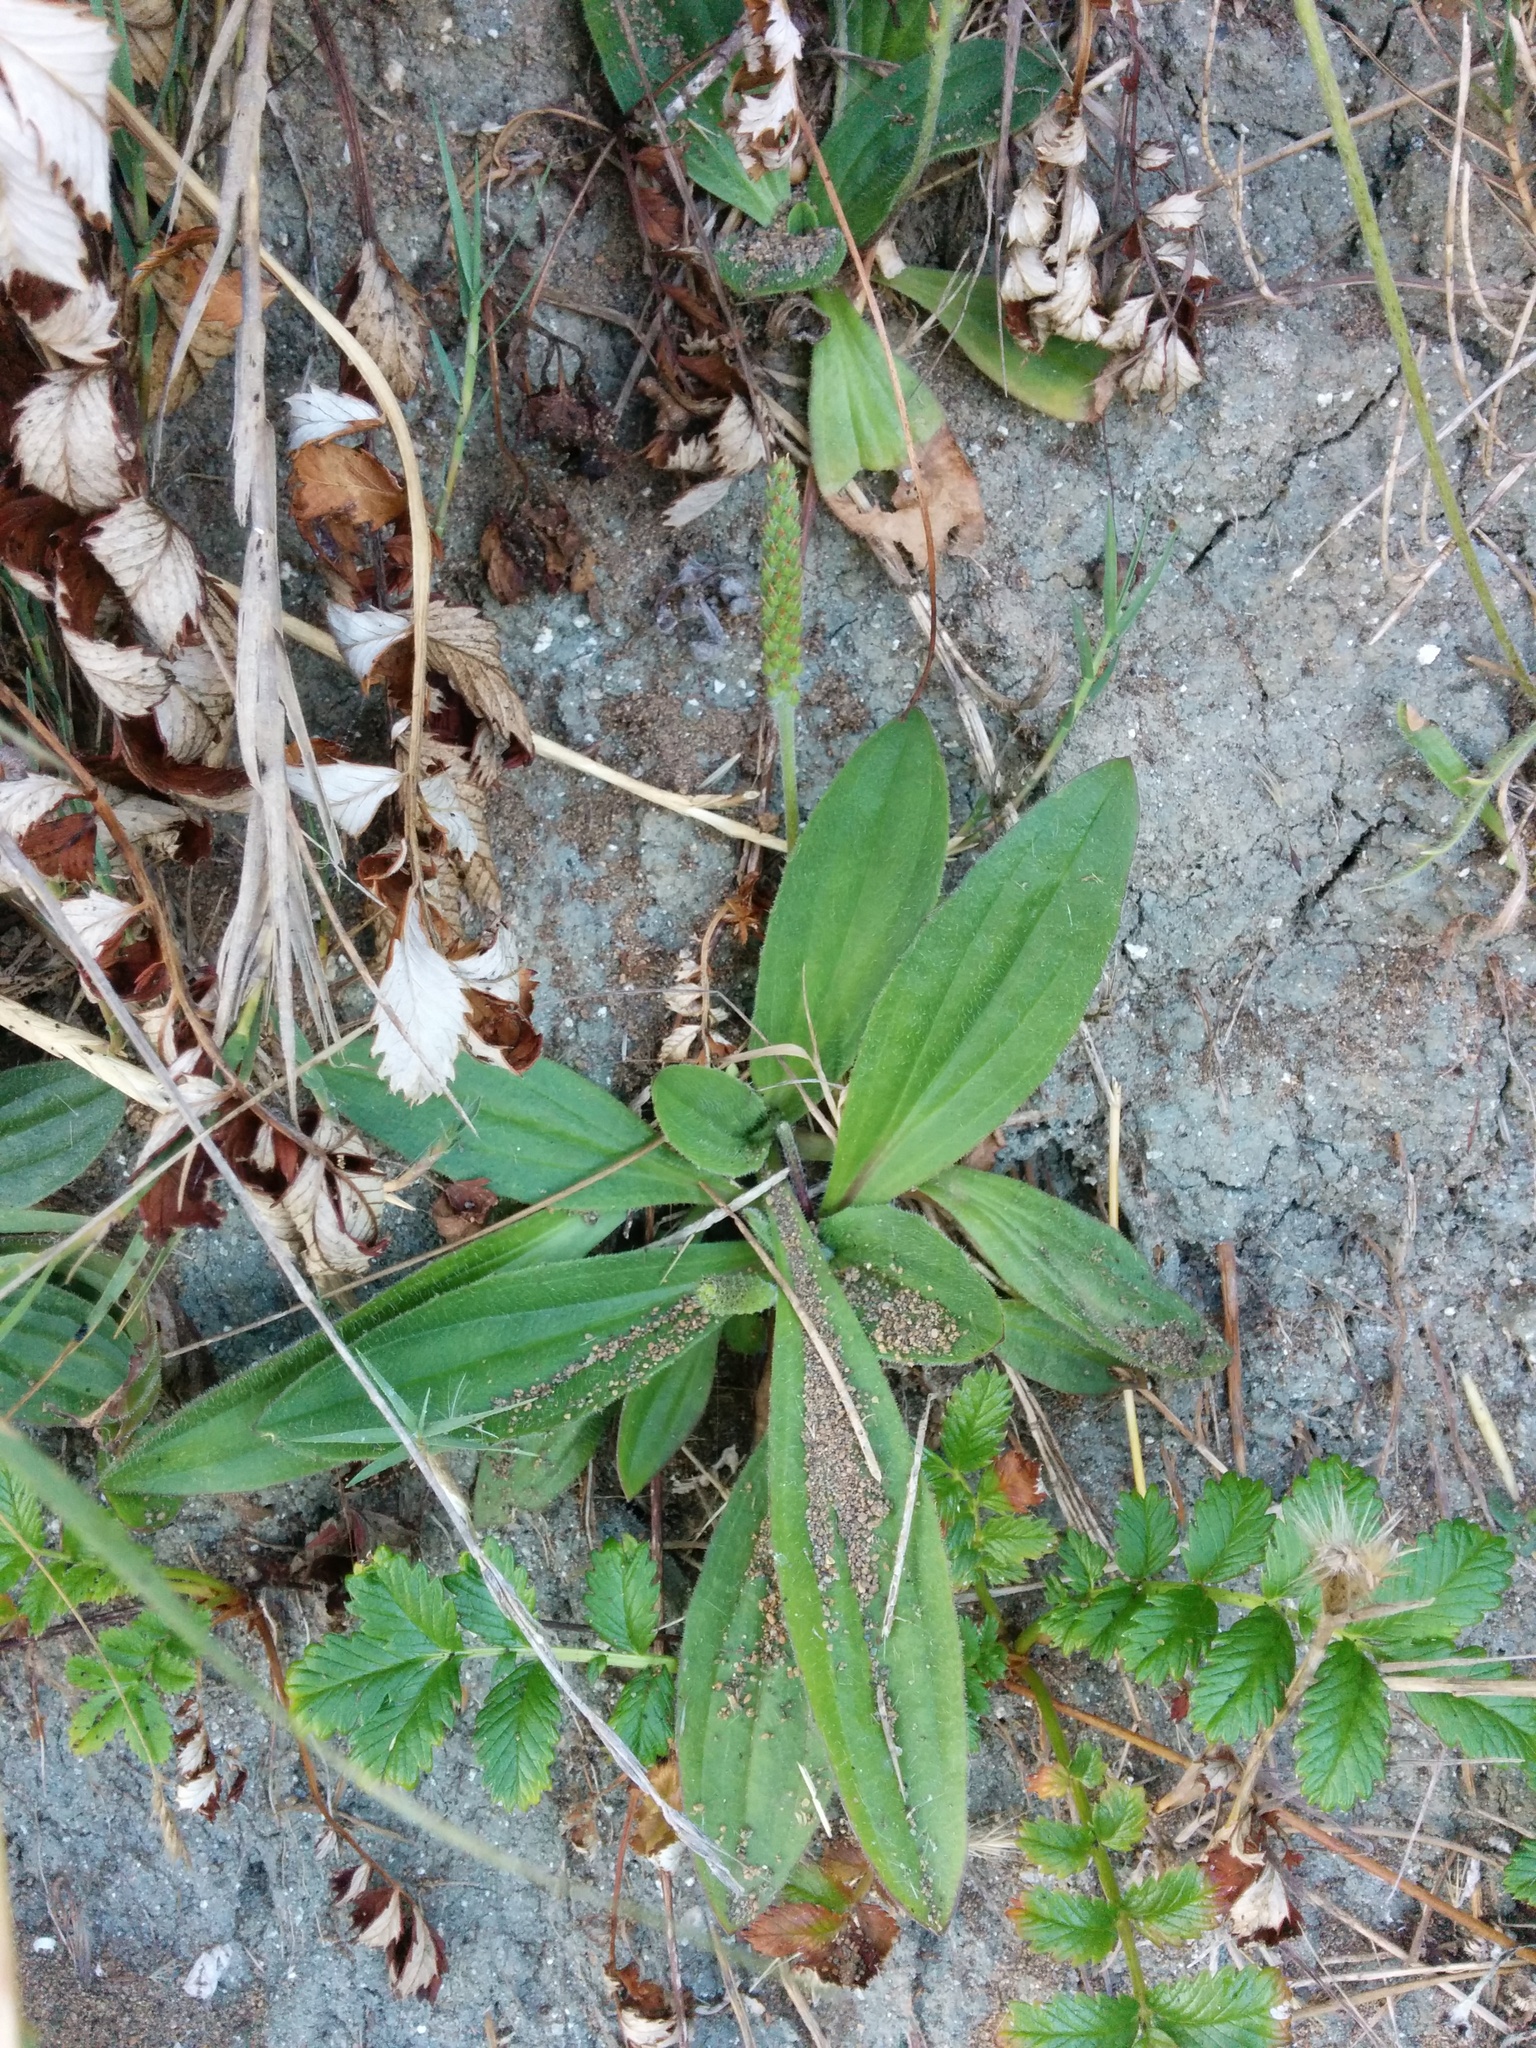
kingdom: Plantae
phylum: Tracheophyta
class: Magnoliopsida
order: Lamiales
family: Plantaginaceae
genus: Plantago
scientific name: Plantago subnuda
